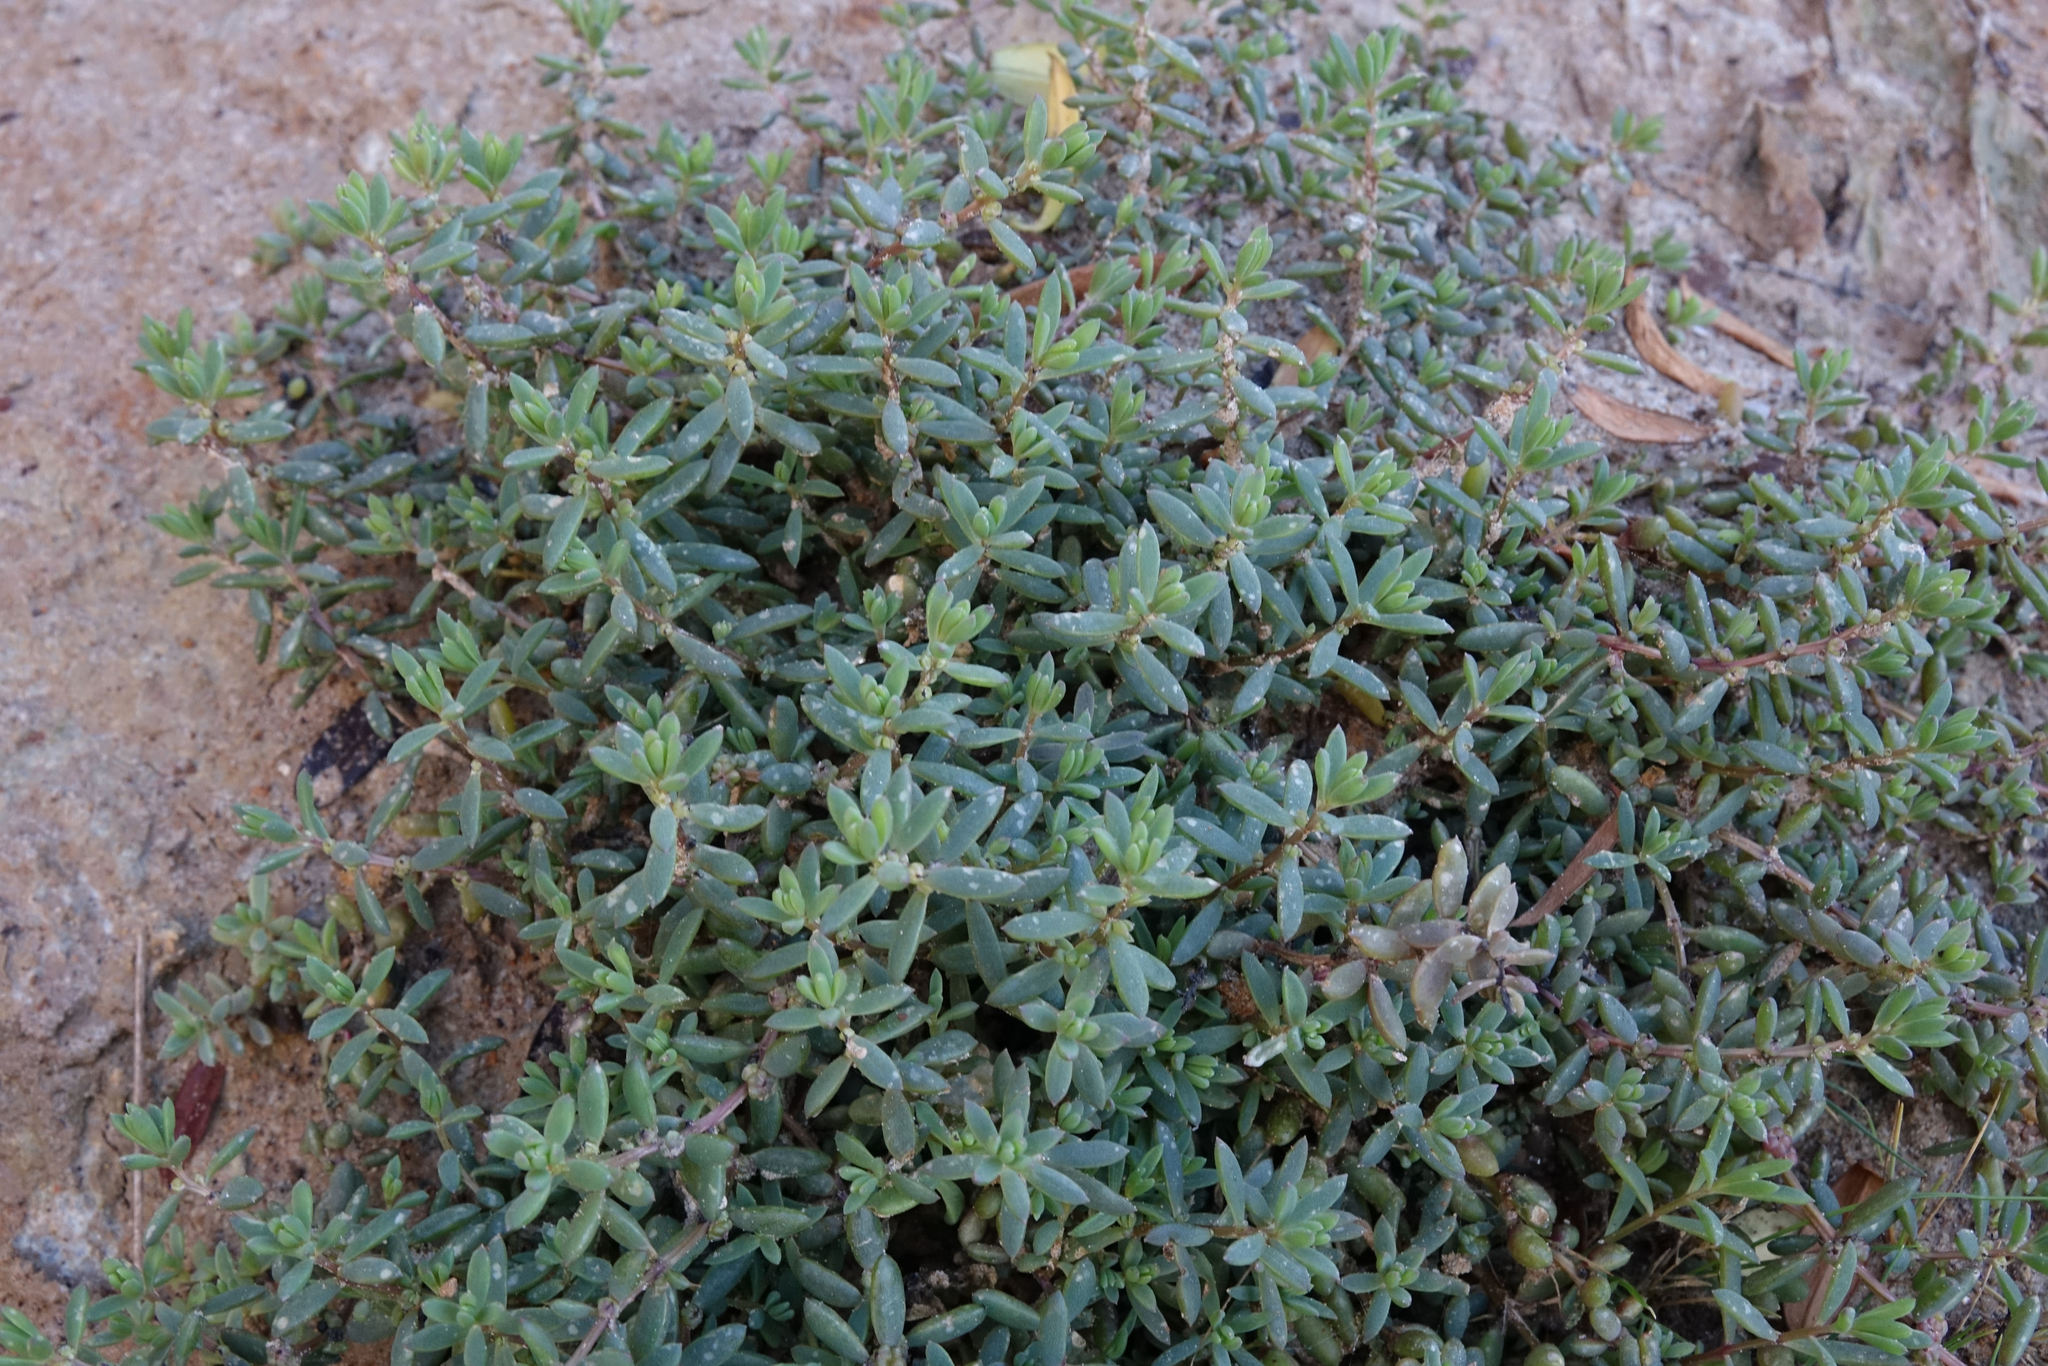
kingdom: Plantae
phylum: Tracheophyta
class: Magnoliopsida
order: Caryophyllales
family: Amaranthaceae
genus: Suaeda
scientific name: Suaeda novae-zelandiae
